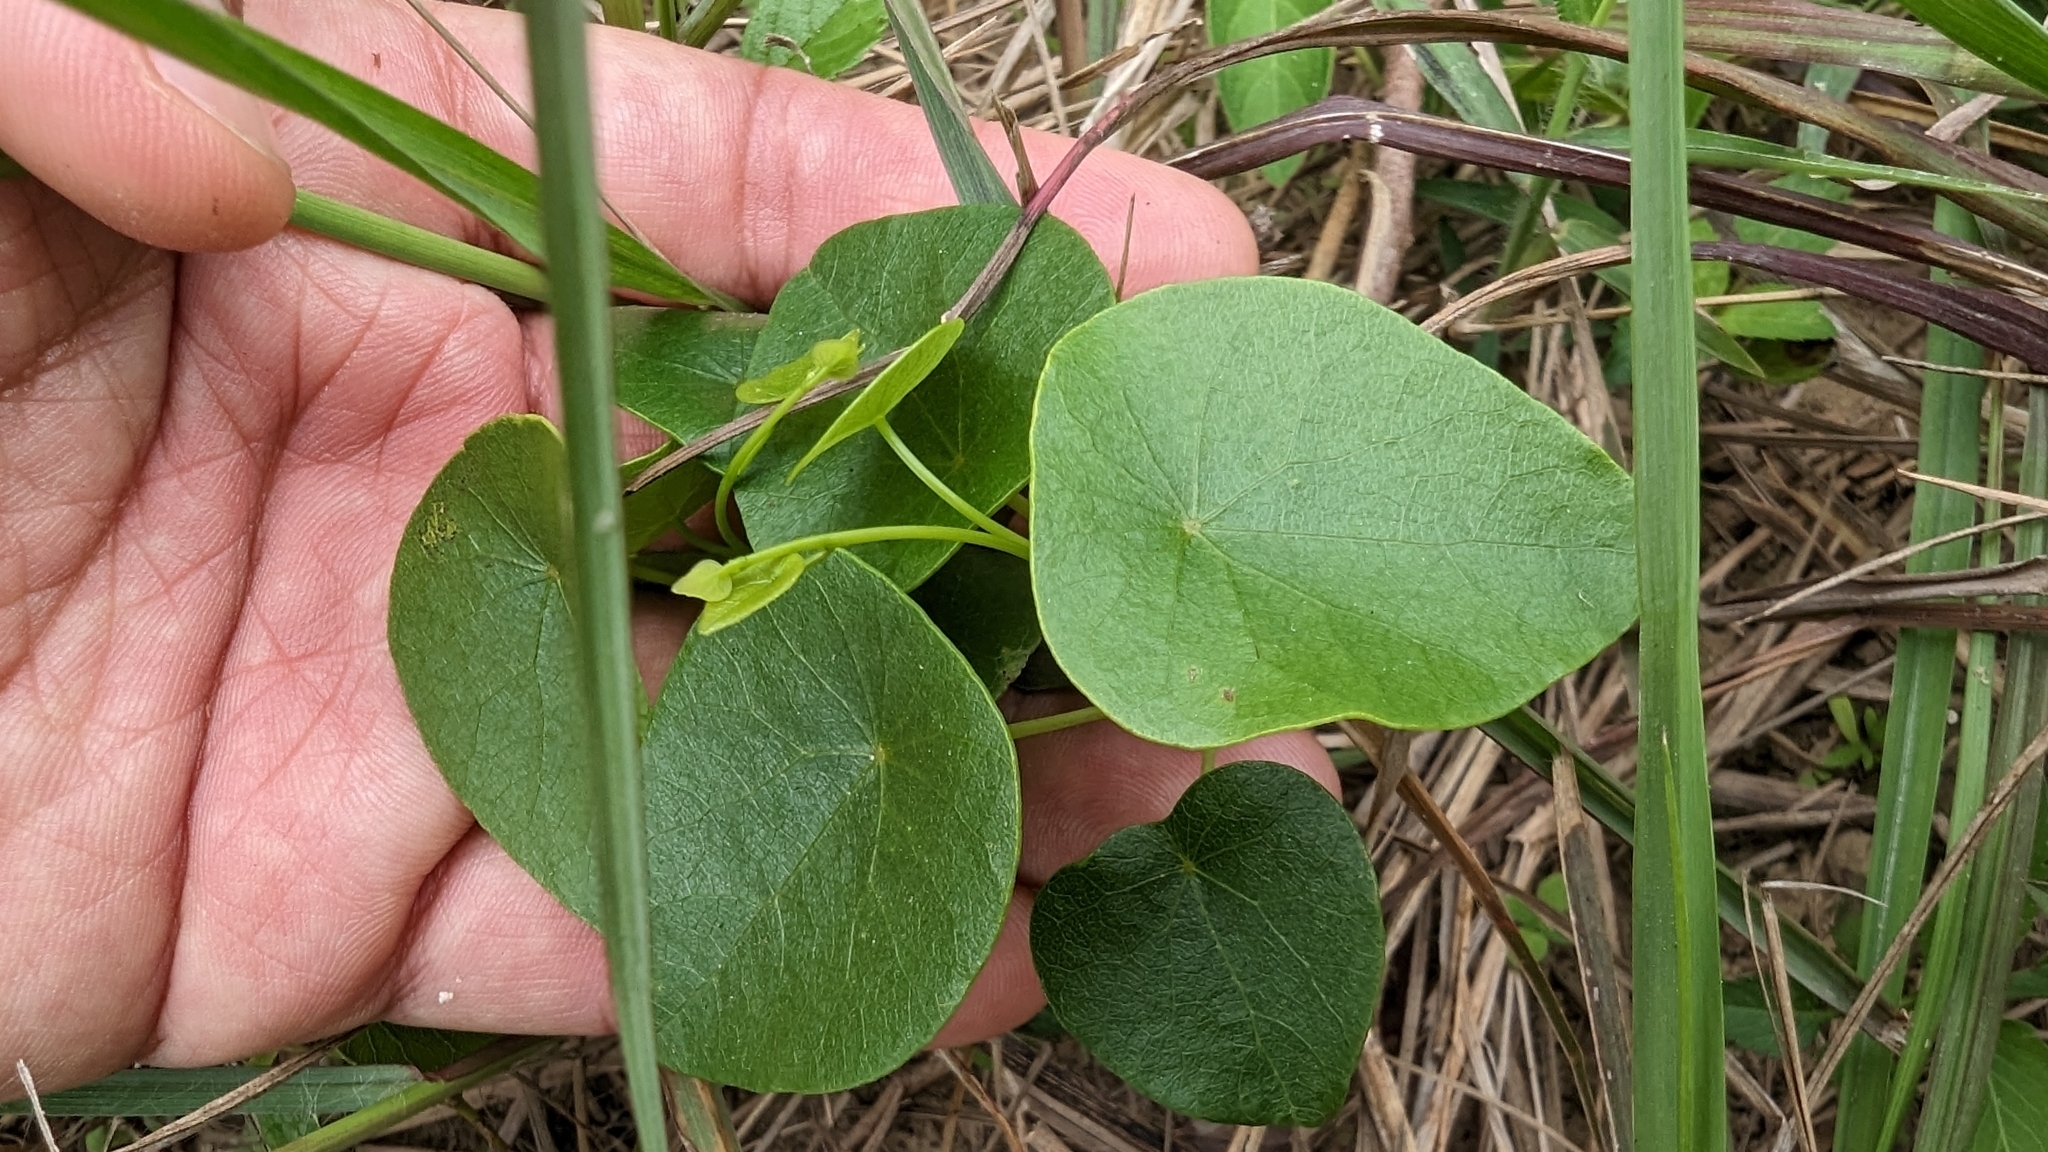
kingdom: Plantae
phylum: Tracheophyta
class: Magnoliopsida
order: Ranunculales
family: Menispermaceae
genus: Stephania
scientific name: Stephania japonica
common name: Snake vine
